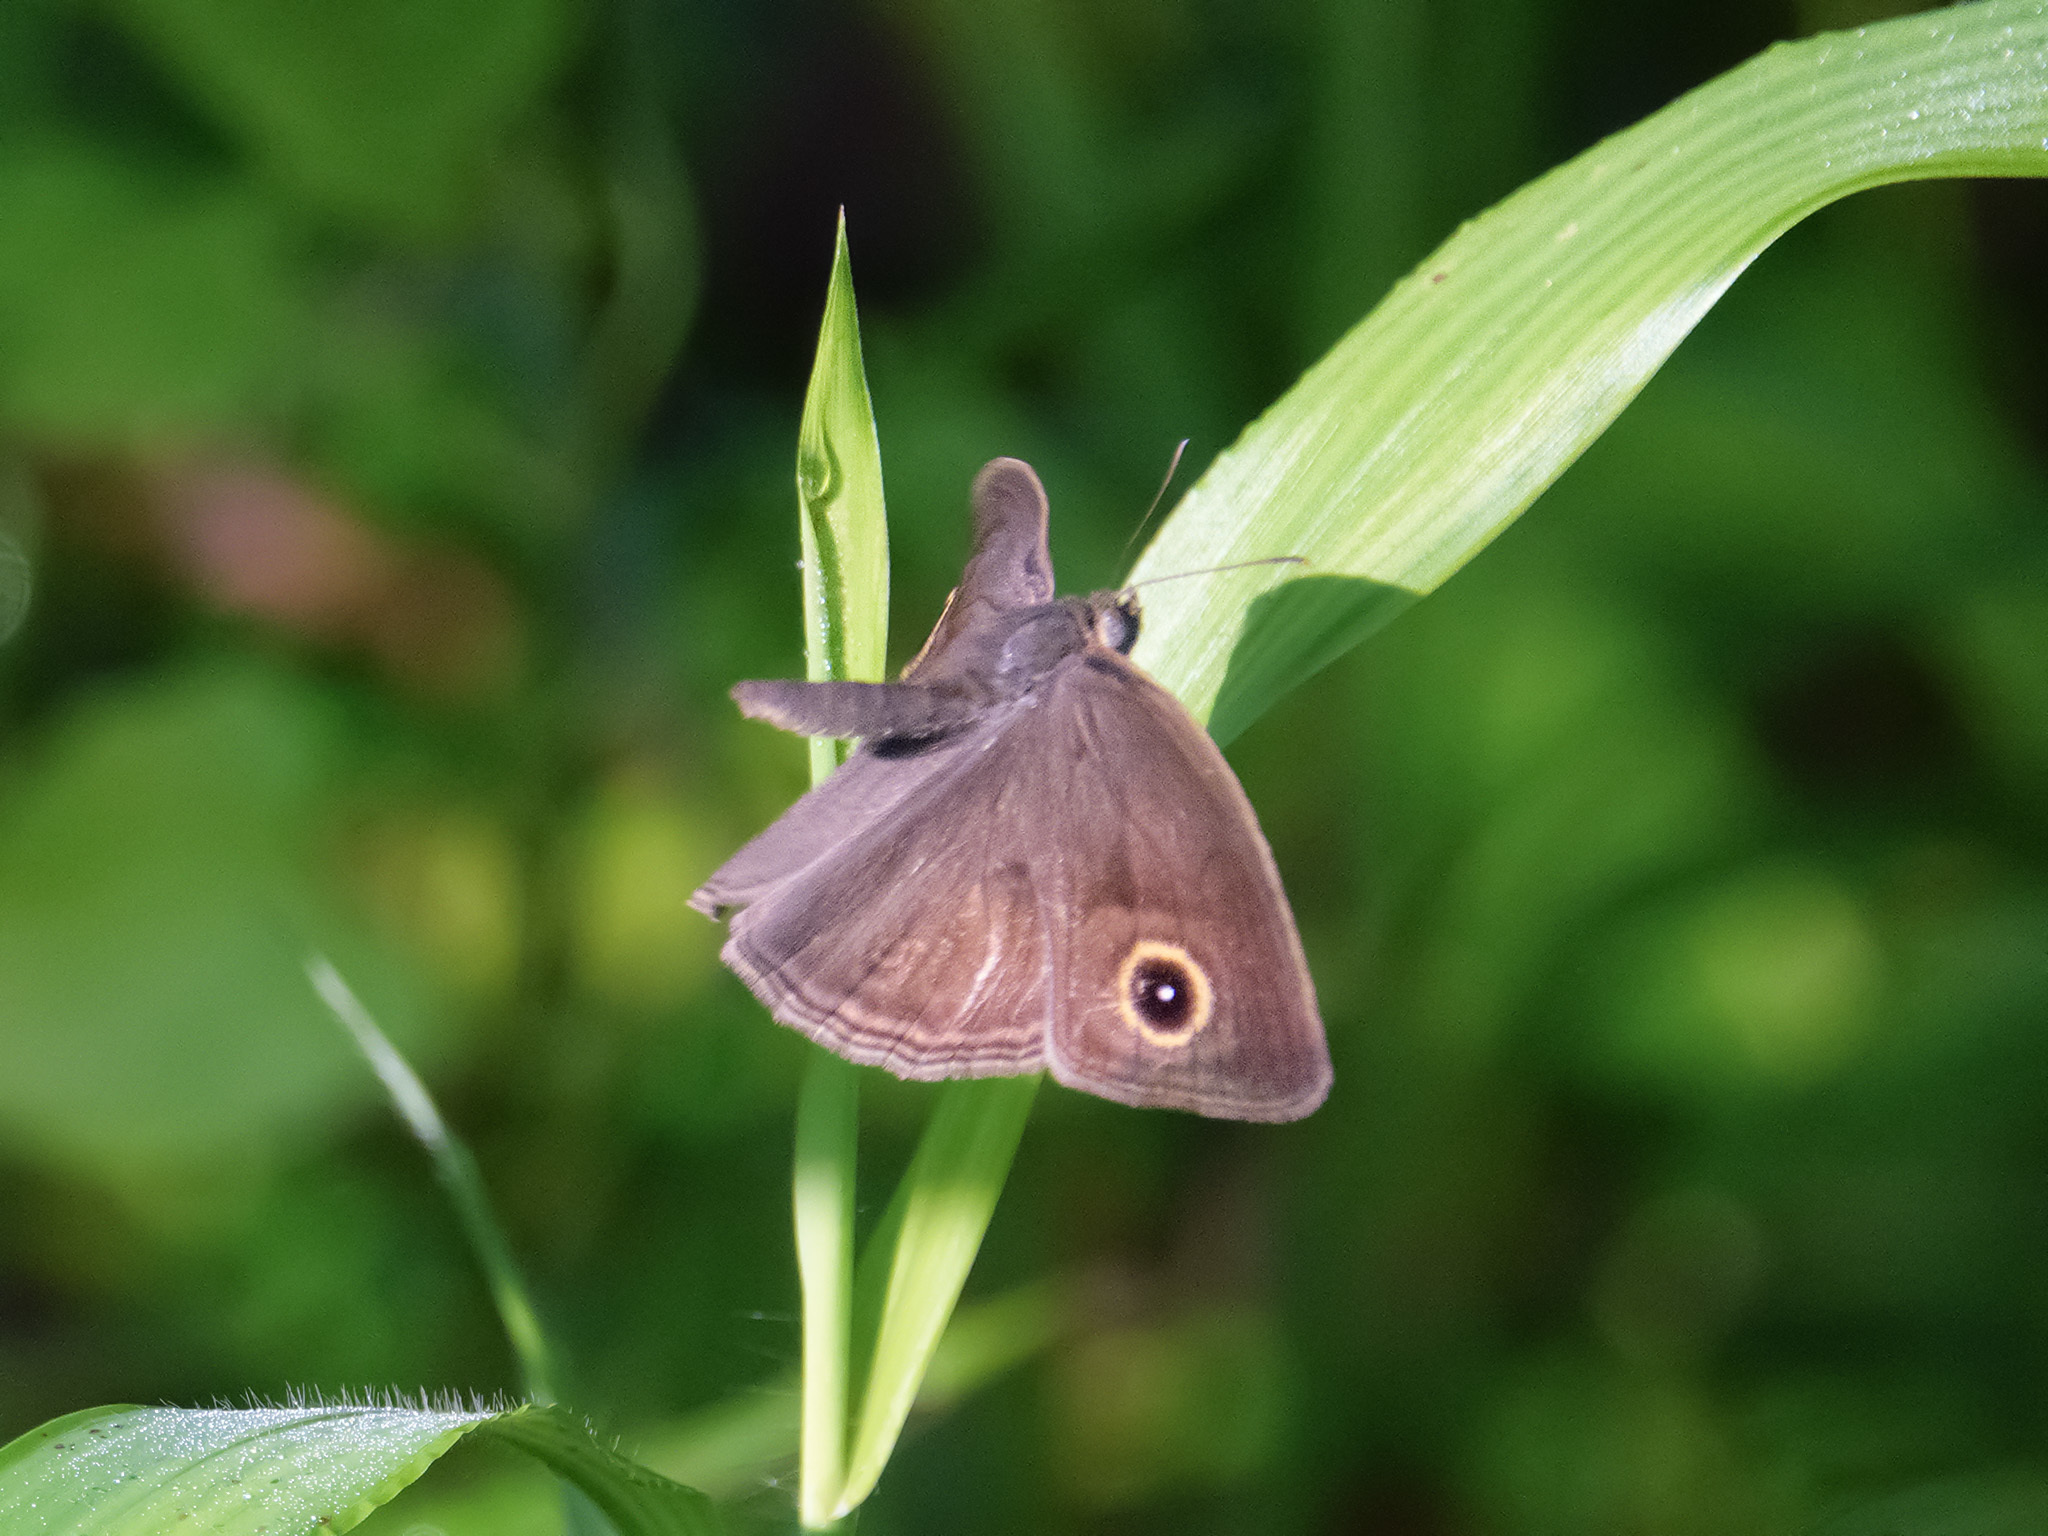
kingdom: Animalia
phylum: Arthropoda
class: Insecta
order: Lepidoptera
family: Nymphalidae
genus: Mycalesis
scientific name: Mycalesis perseoides
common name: Burmese bushbrown
